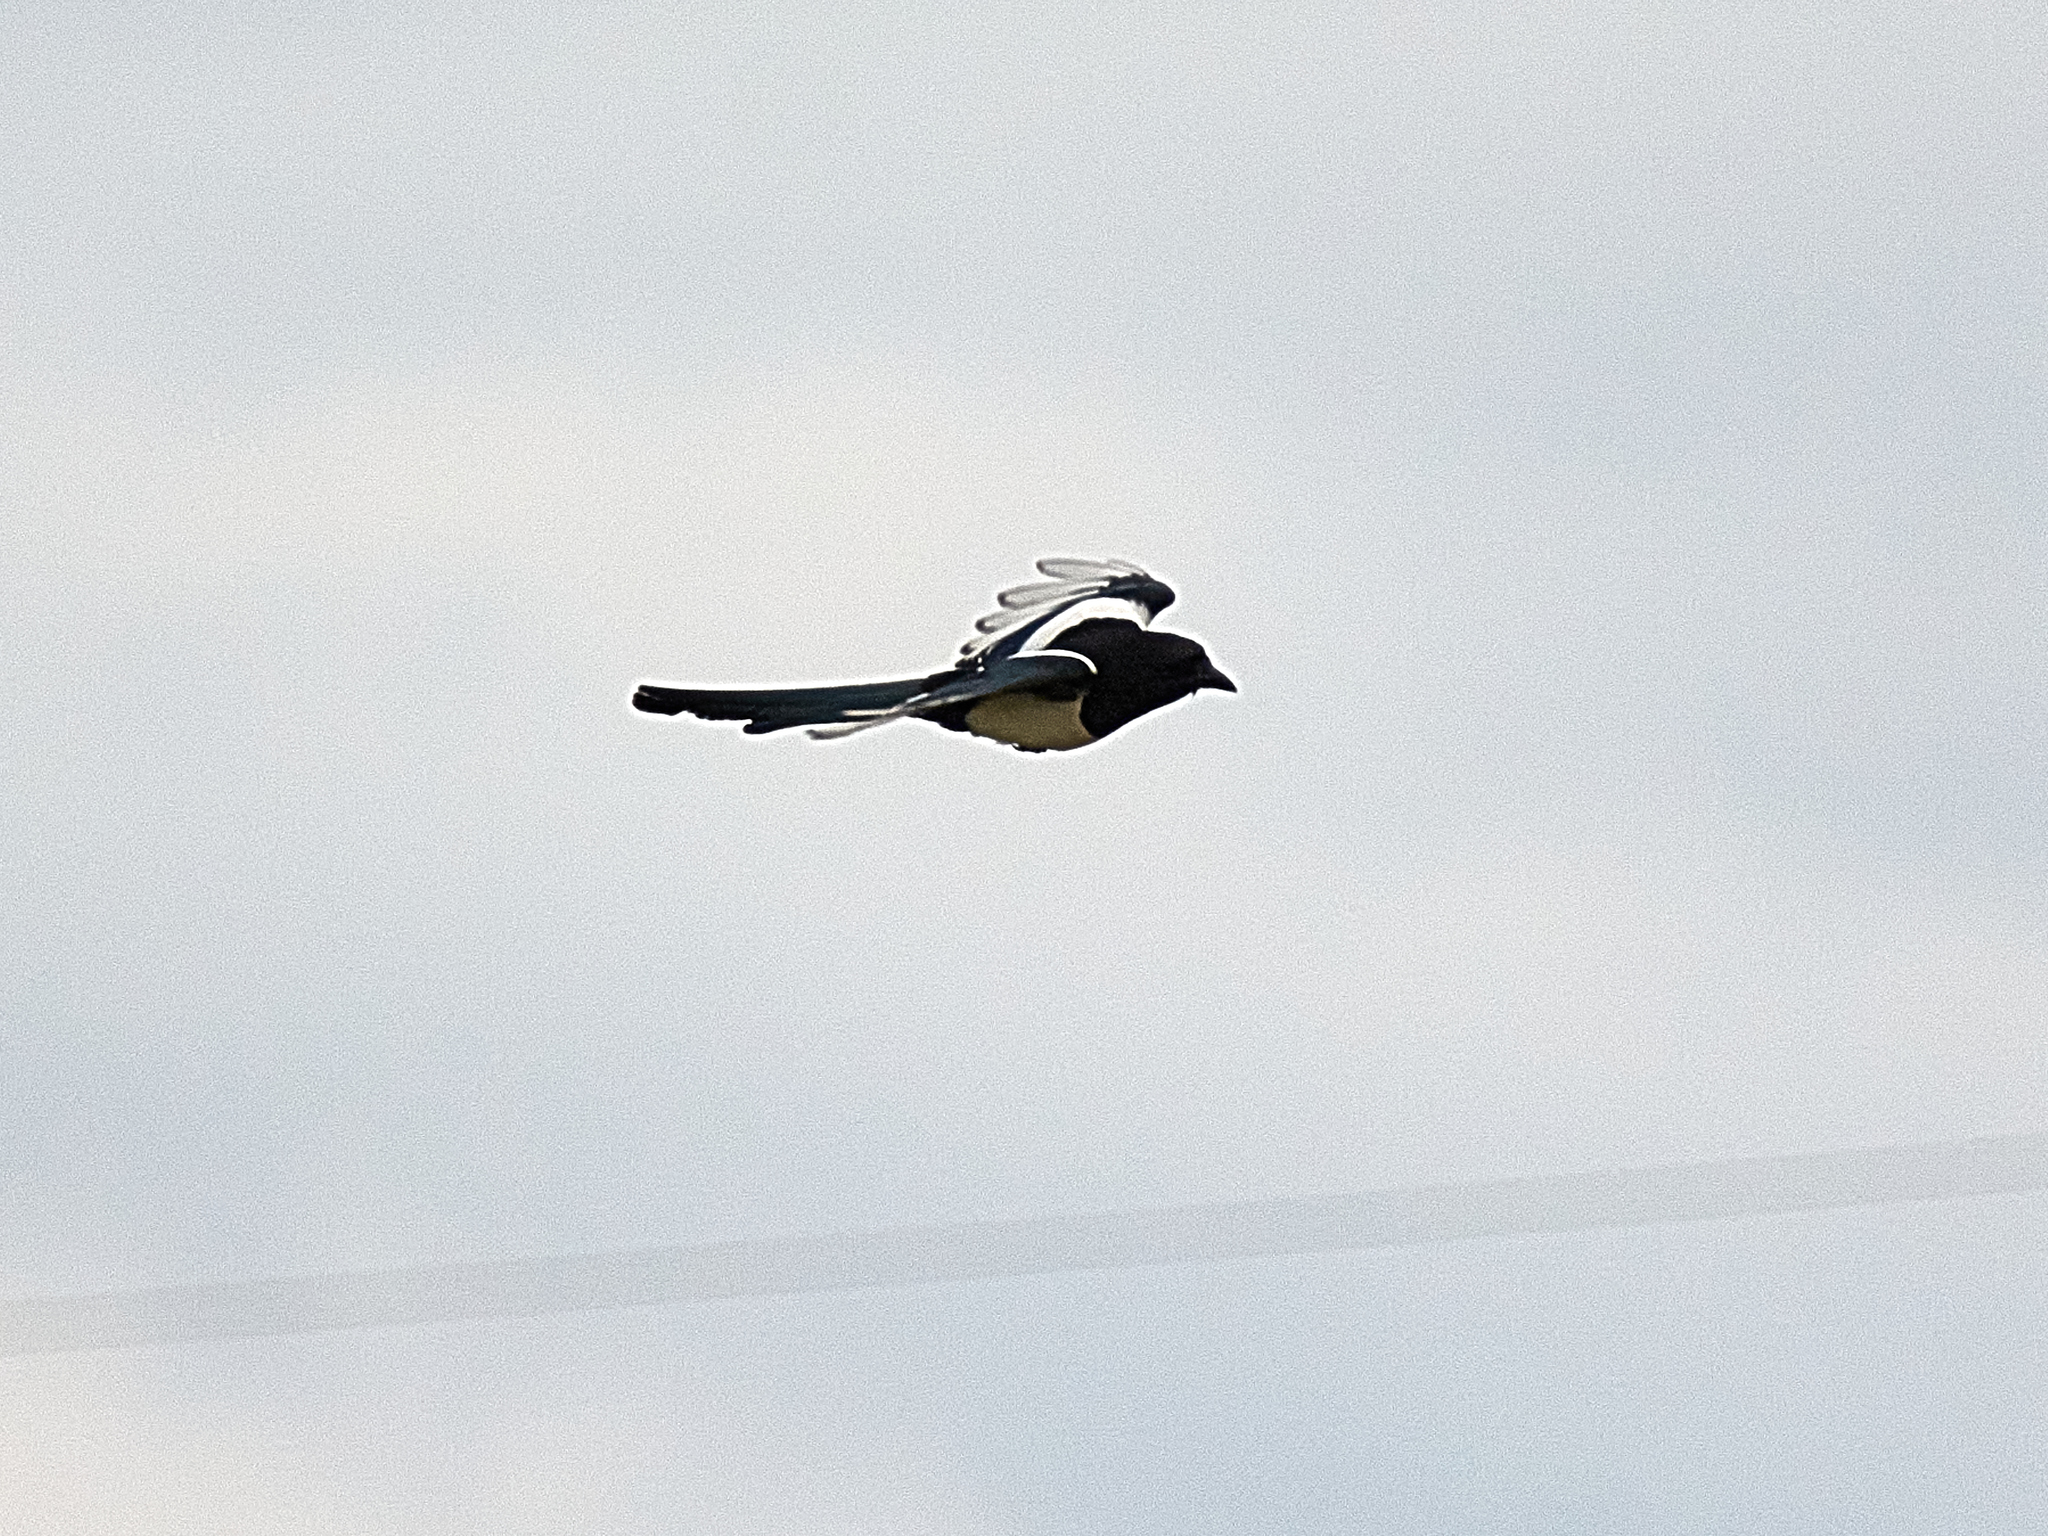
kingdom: Animalia
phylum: Chordata
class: Aves
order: Passeriformes
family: Corvidae
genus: Pica
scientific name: Pica pica
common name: Eurasian magpie
